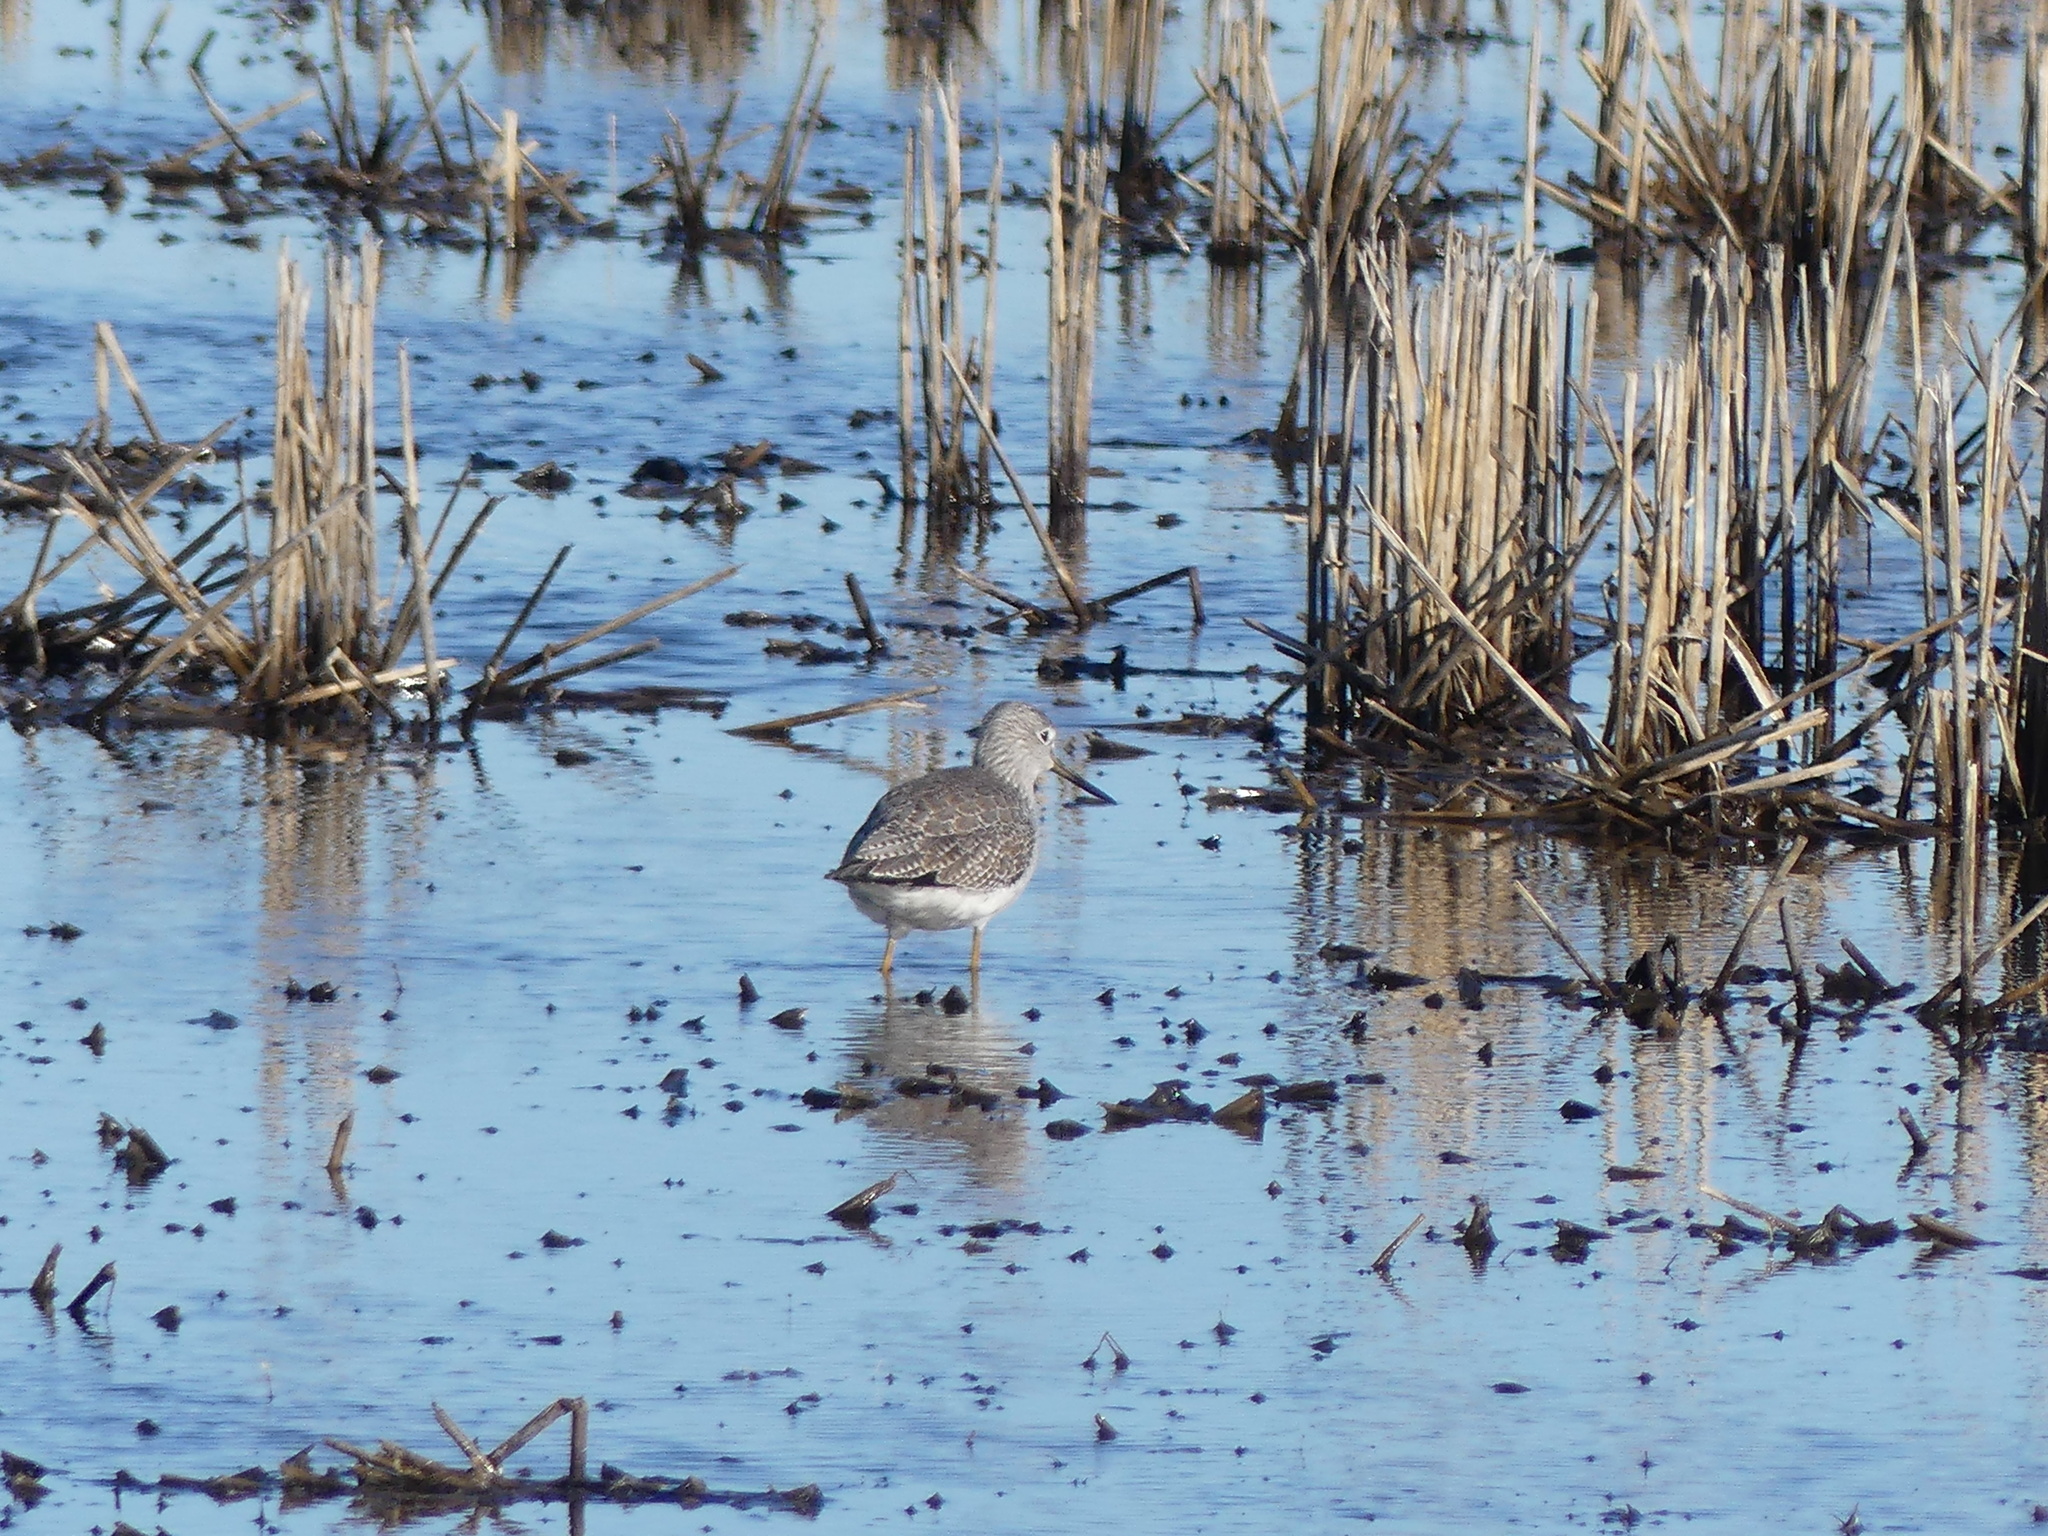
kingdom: Animalia
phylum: Chordata
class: Aves
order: Charadriiformes
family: Scolopacidae
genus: Tringa
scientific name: Tringa melanoleuca
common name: Greater yellowlegs
